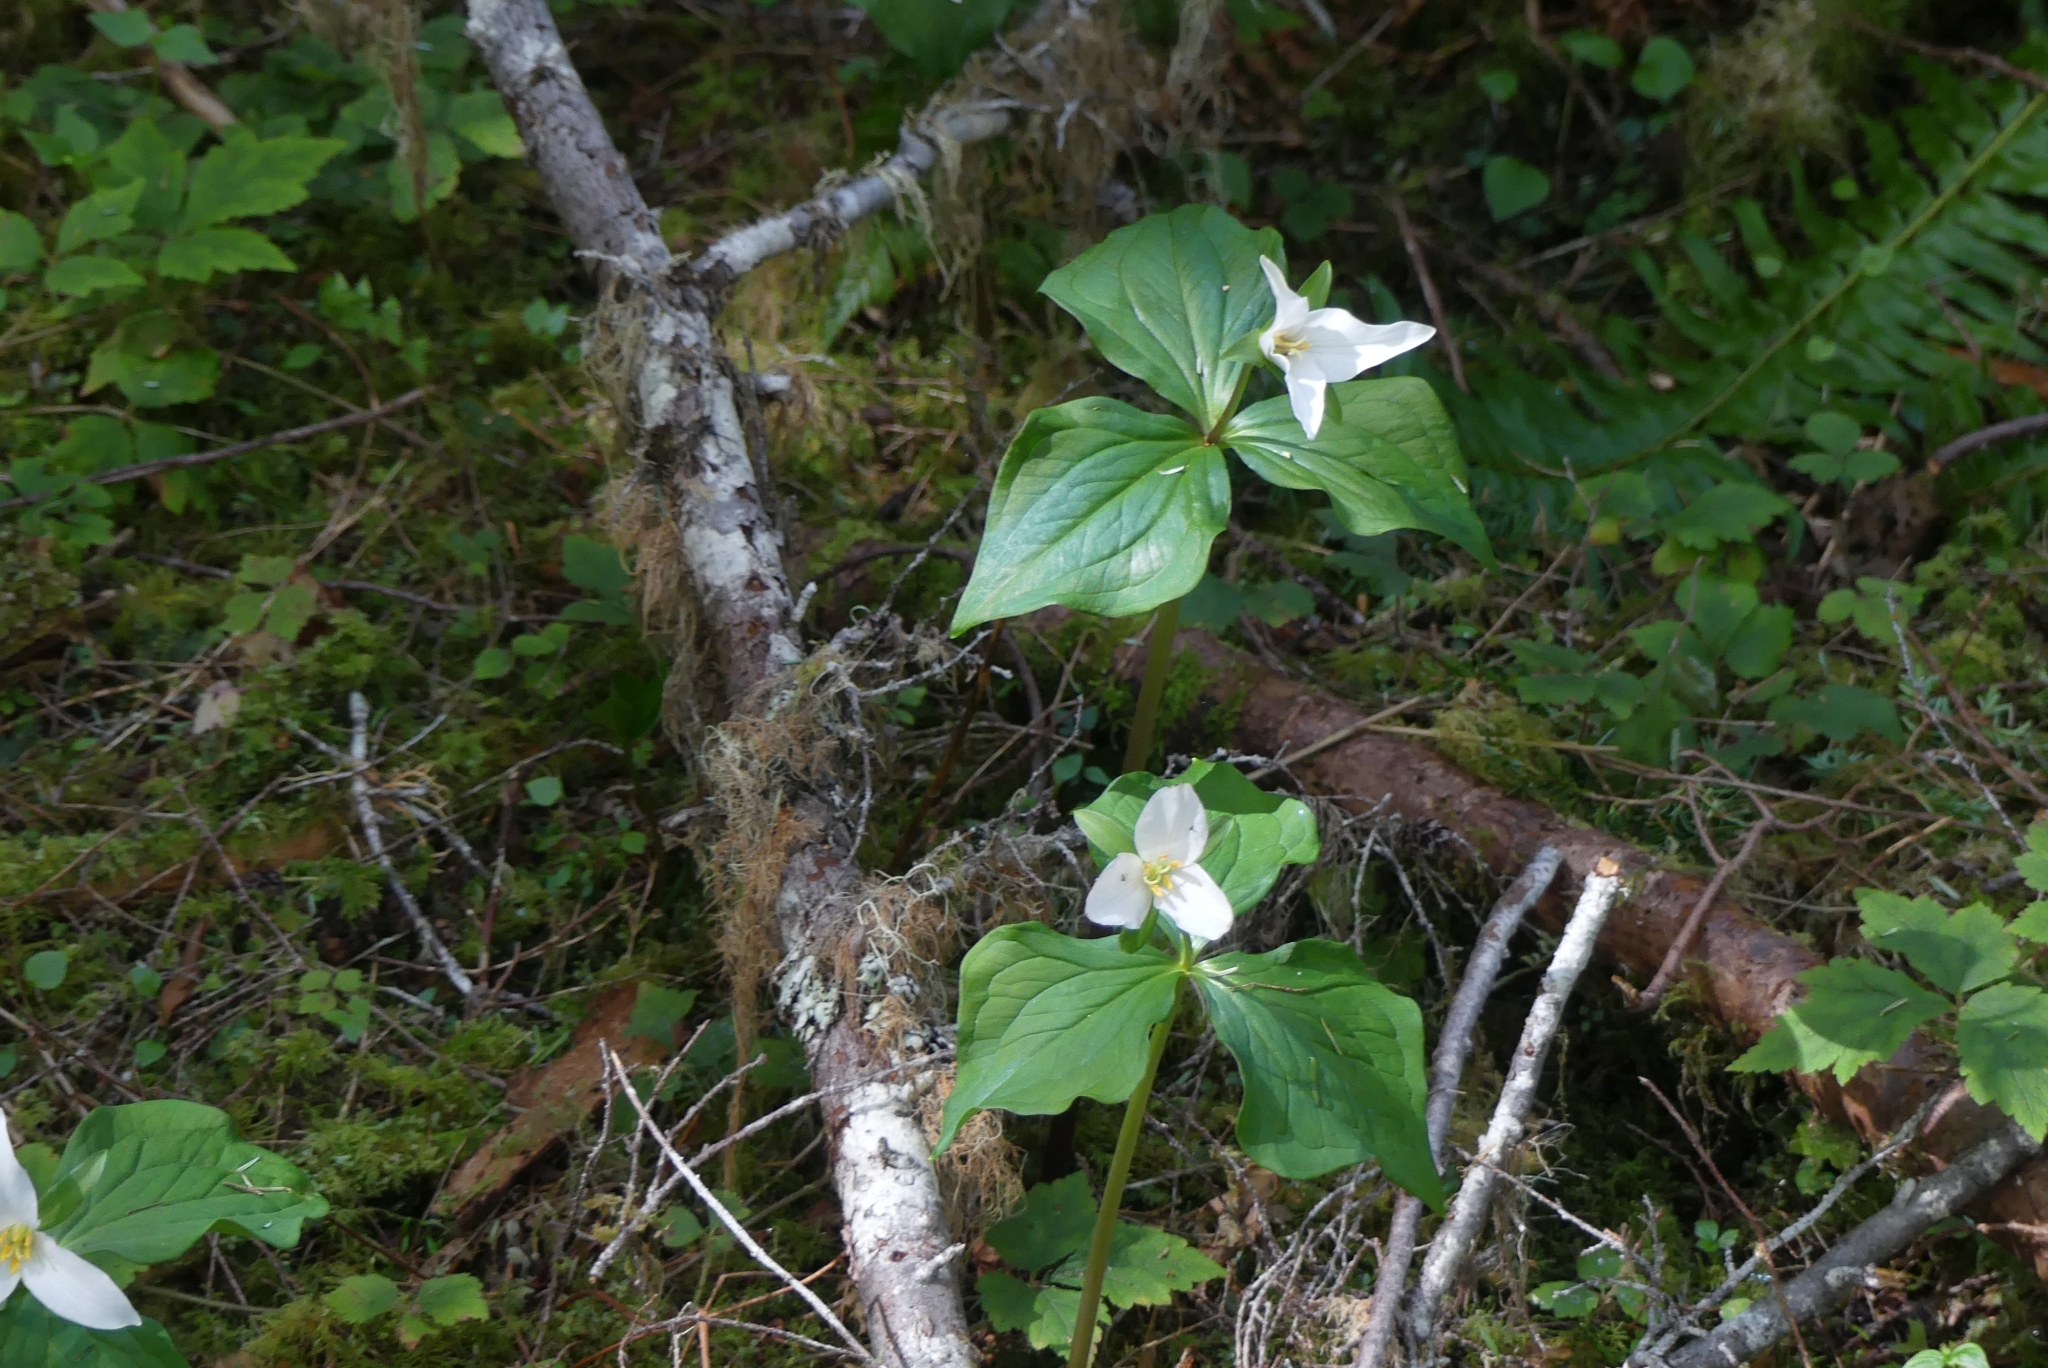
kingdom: Plantae
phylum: Tracheophyta
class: Liliopsida
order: Liliales
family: Melanthiaceae
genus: Trillium
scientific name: Trillium ovatum
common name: Pacific trillium
